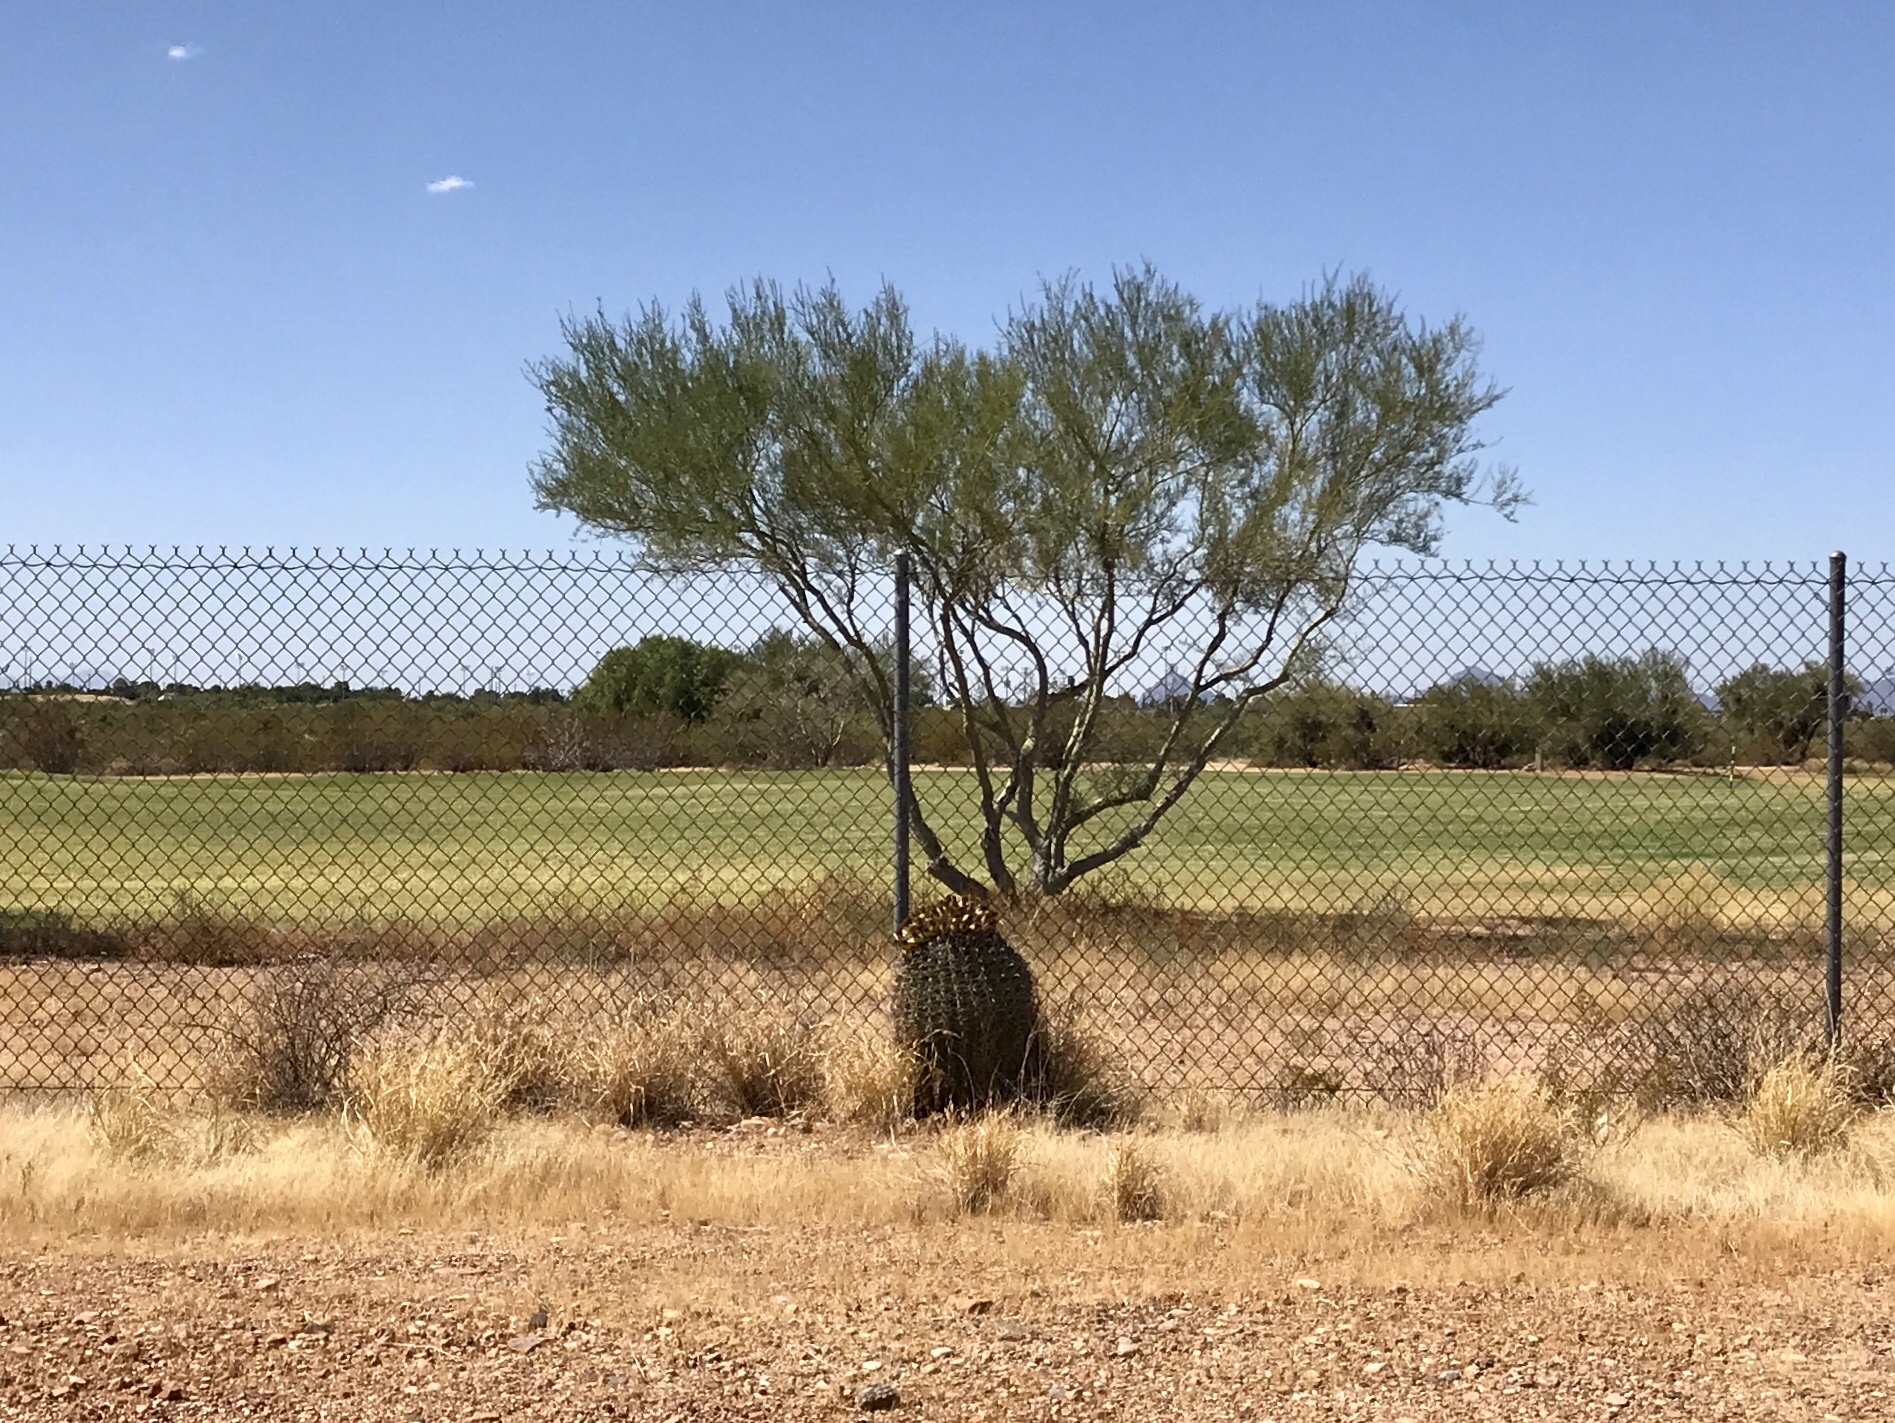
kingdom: Plantae
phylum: Tracheophyta
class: Magnoliopsida
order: Caryophyllales
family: Cactaceae
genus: Ferocactus
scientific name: Ferocactus wislizeni
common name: Candy barrel cactus
